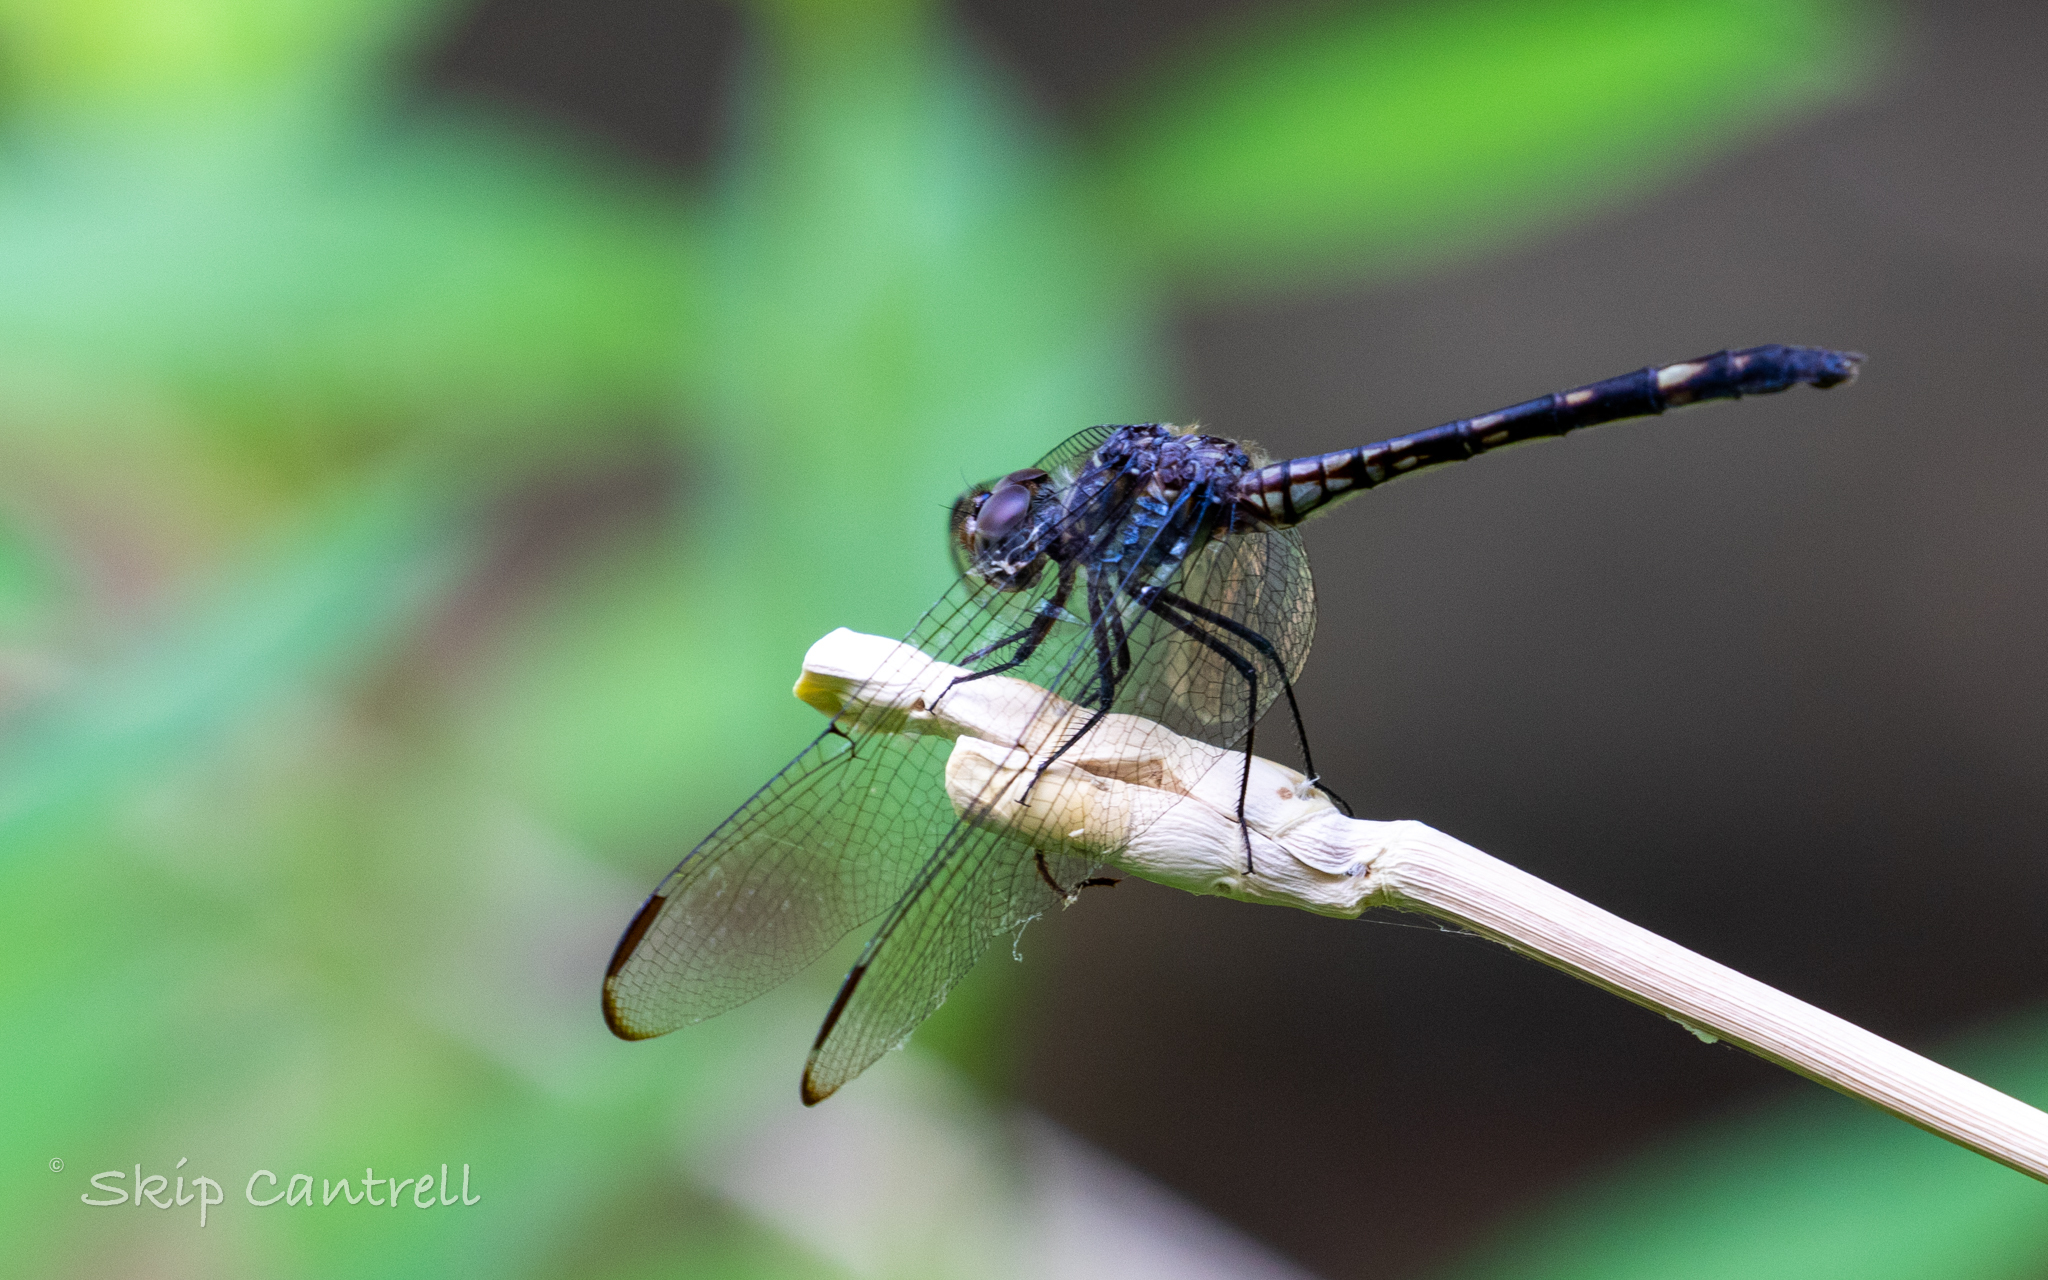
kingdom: Animalia
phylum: Arthropoda
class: Insecta
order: Odonata
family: Libellulidae
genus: Dythemis
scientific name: Dythemis nigrescens
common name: Black setwing
